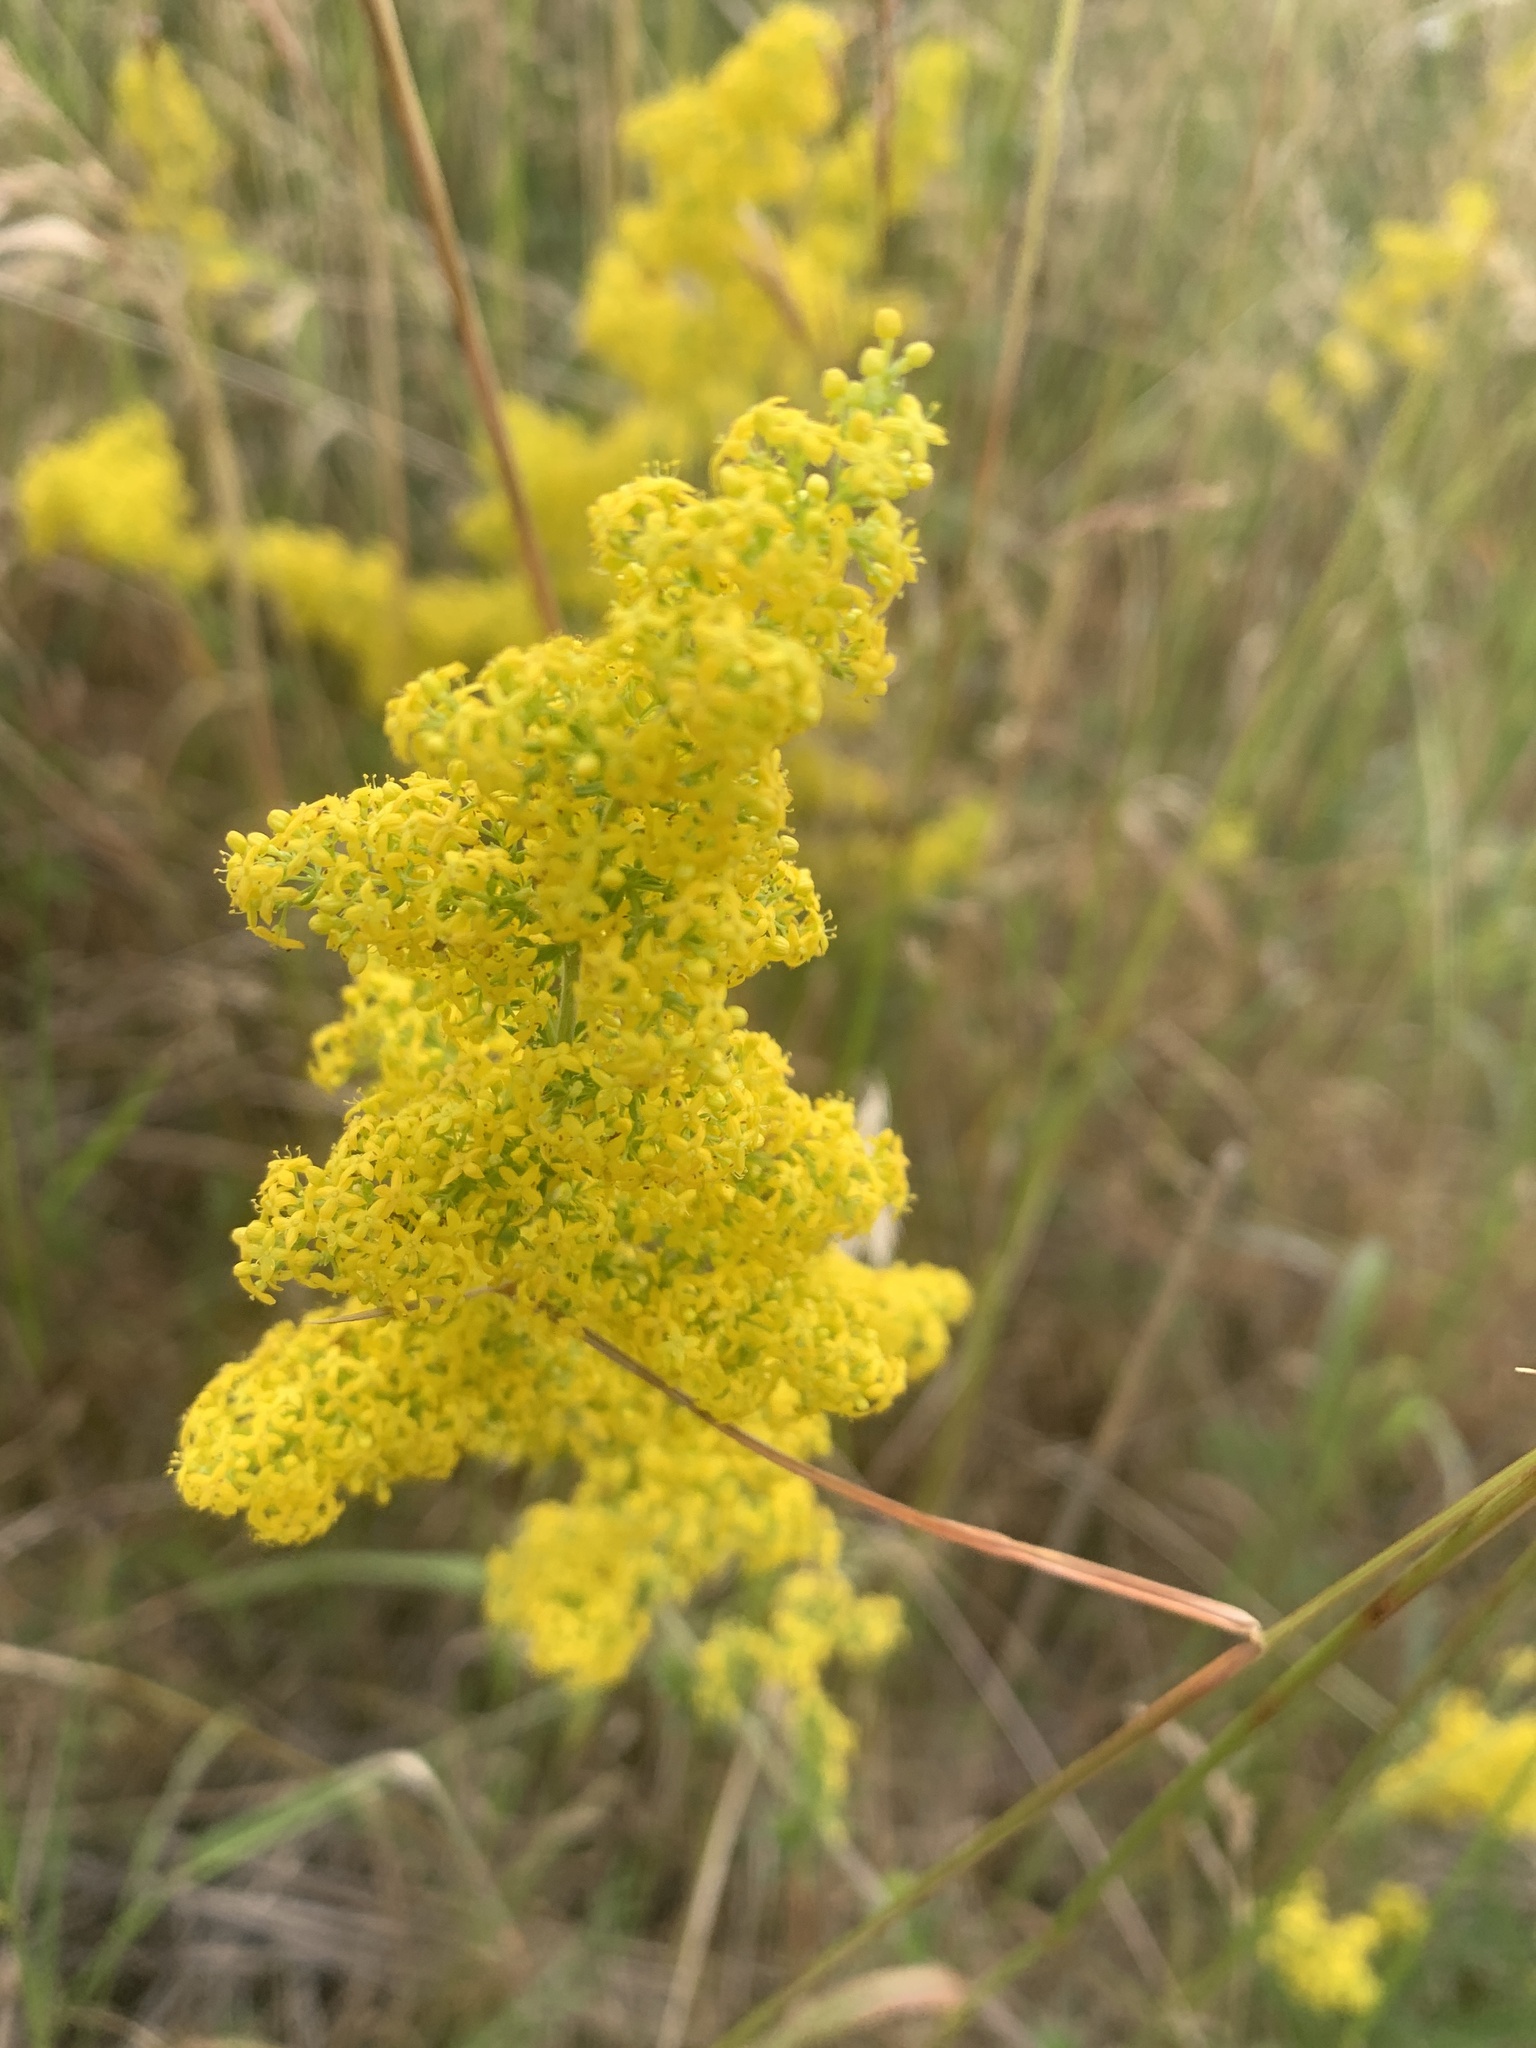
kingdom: Plantae
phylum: Tracheophyta
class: Magnoliopsida
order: Gentianales
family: Rubiaceae
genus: Galium
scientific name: Galium verum
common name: Lady's bedstraw
